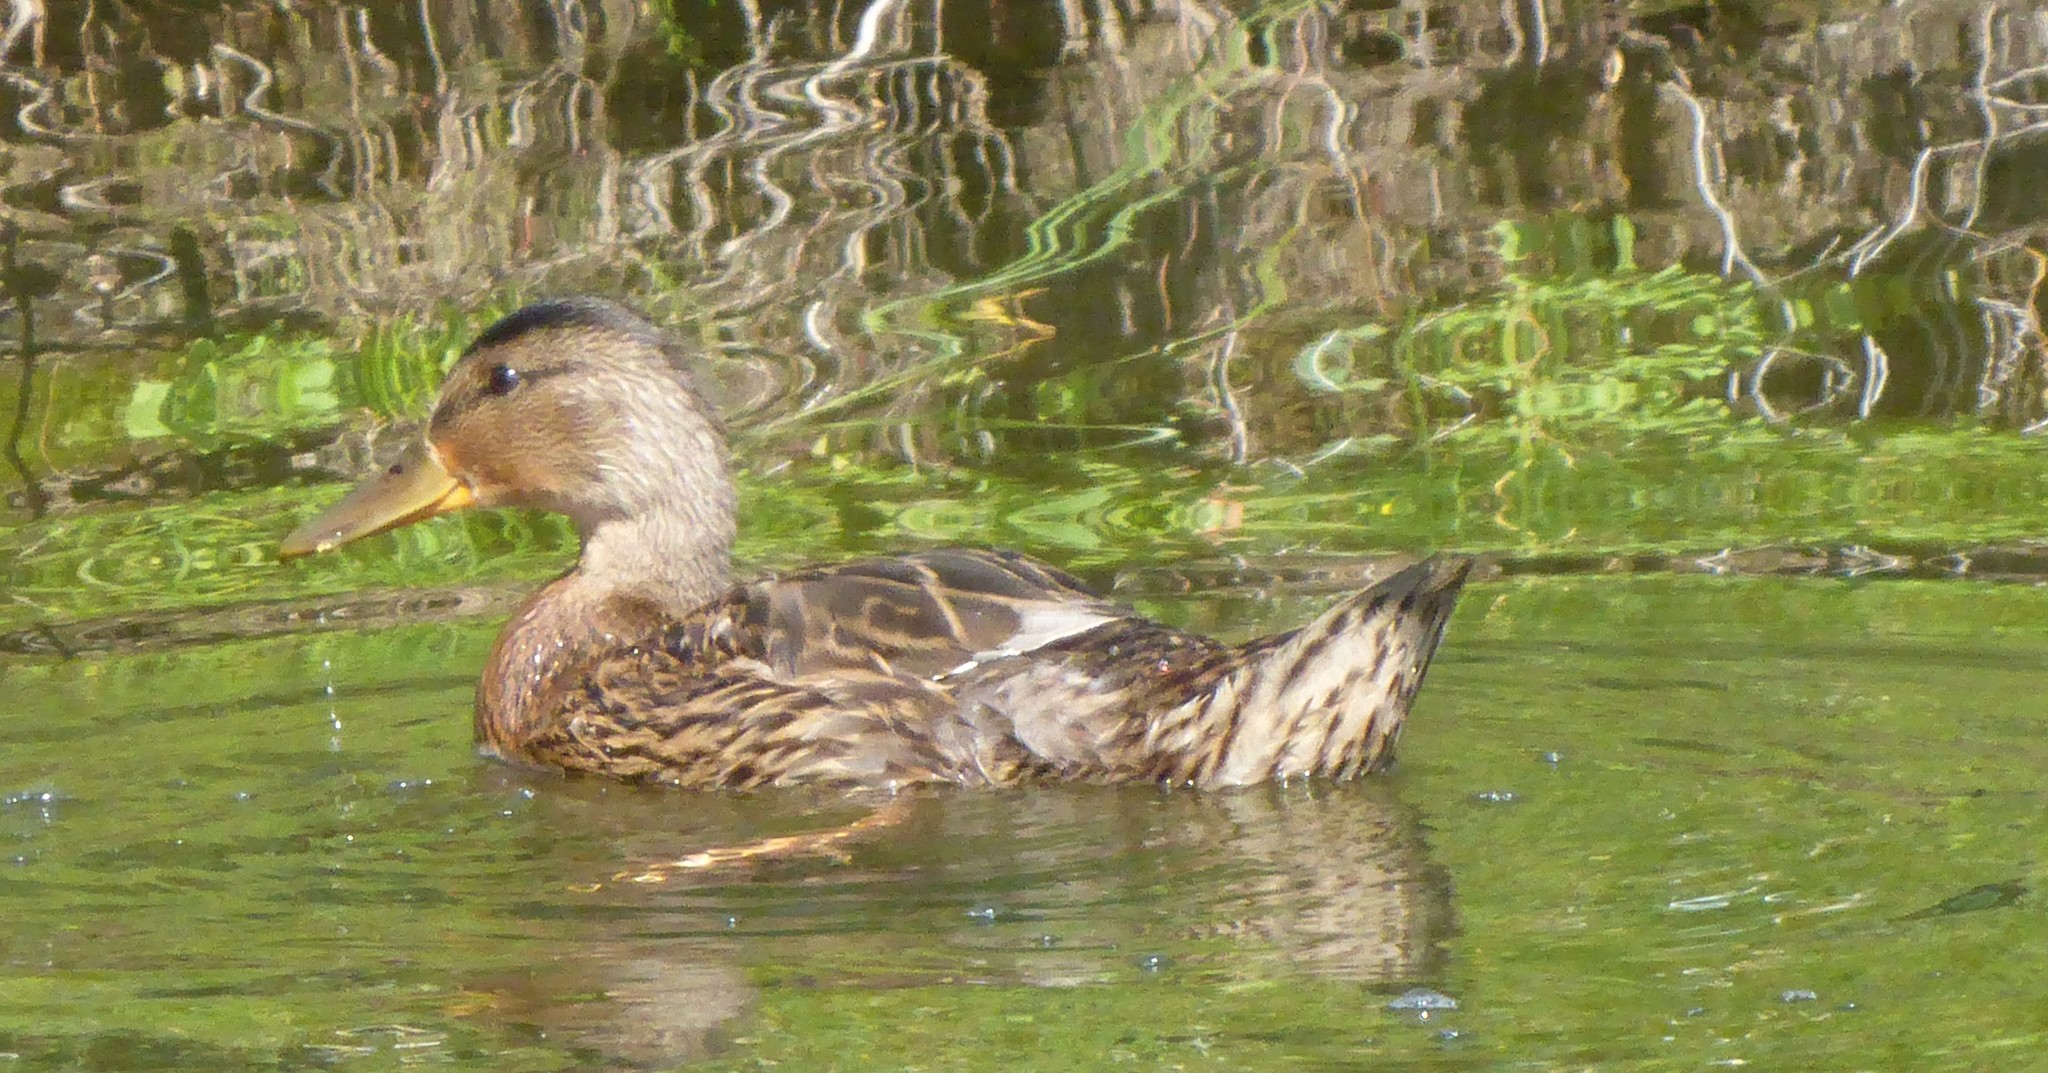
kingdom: Animalia
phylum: Chordata
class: Aves
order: Anseriformes
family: Anatidae
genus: Anas
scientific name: Anas platyrhynchos
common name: Mallard
